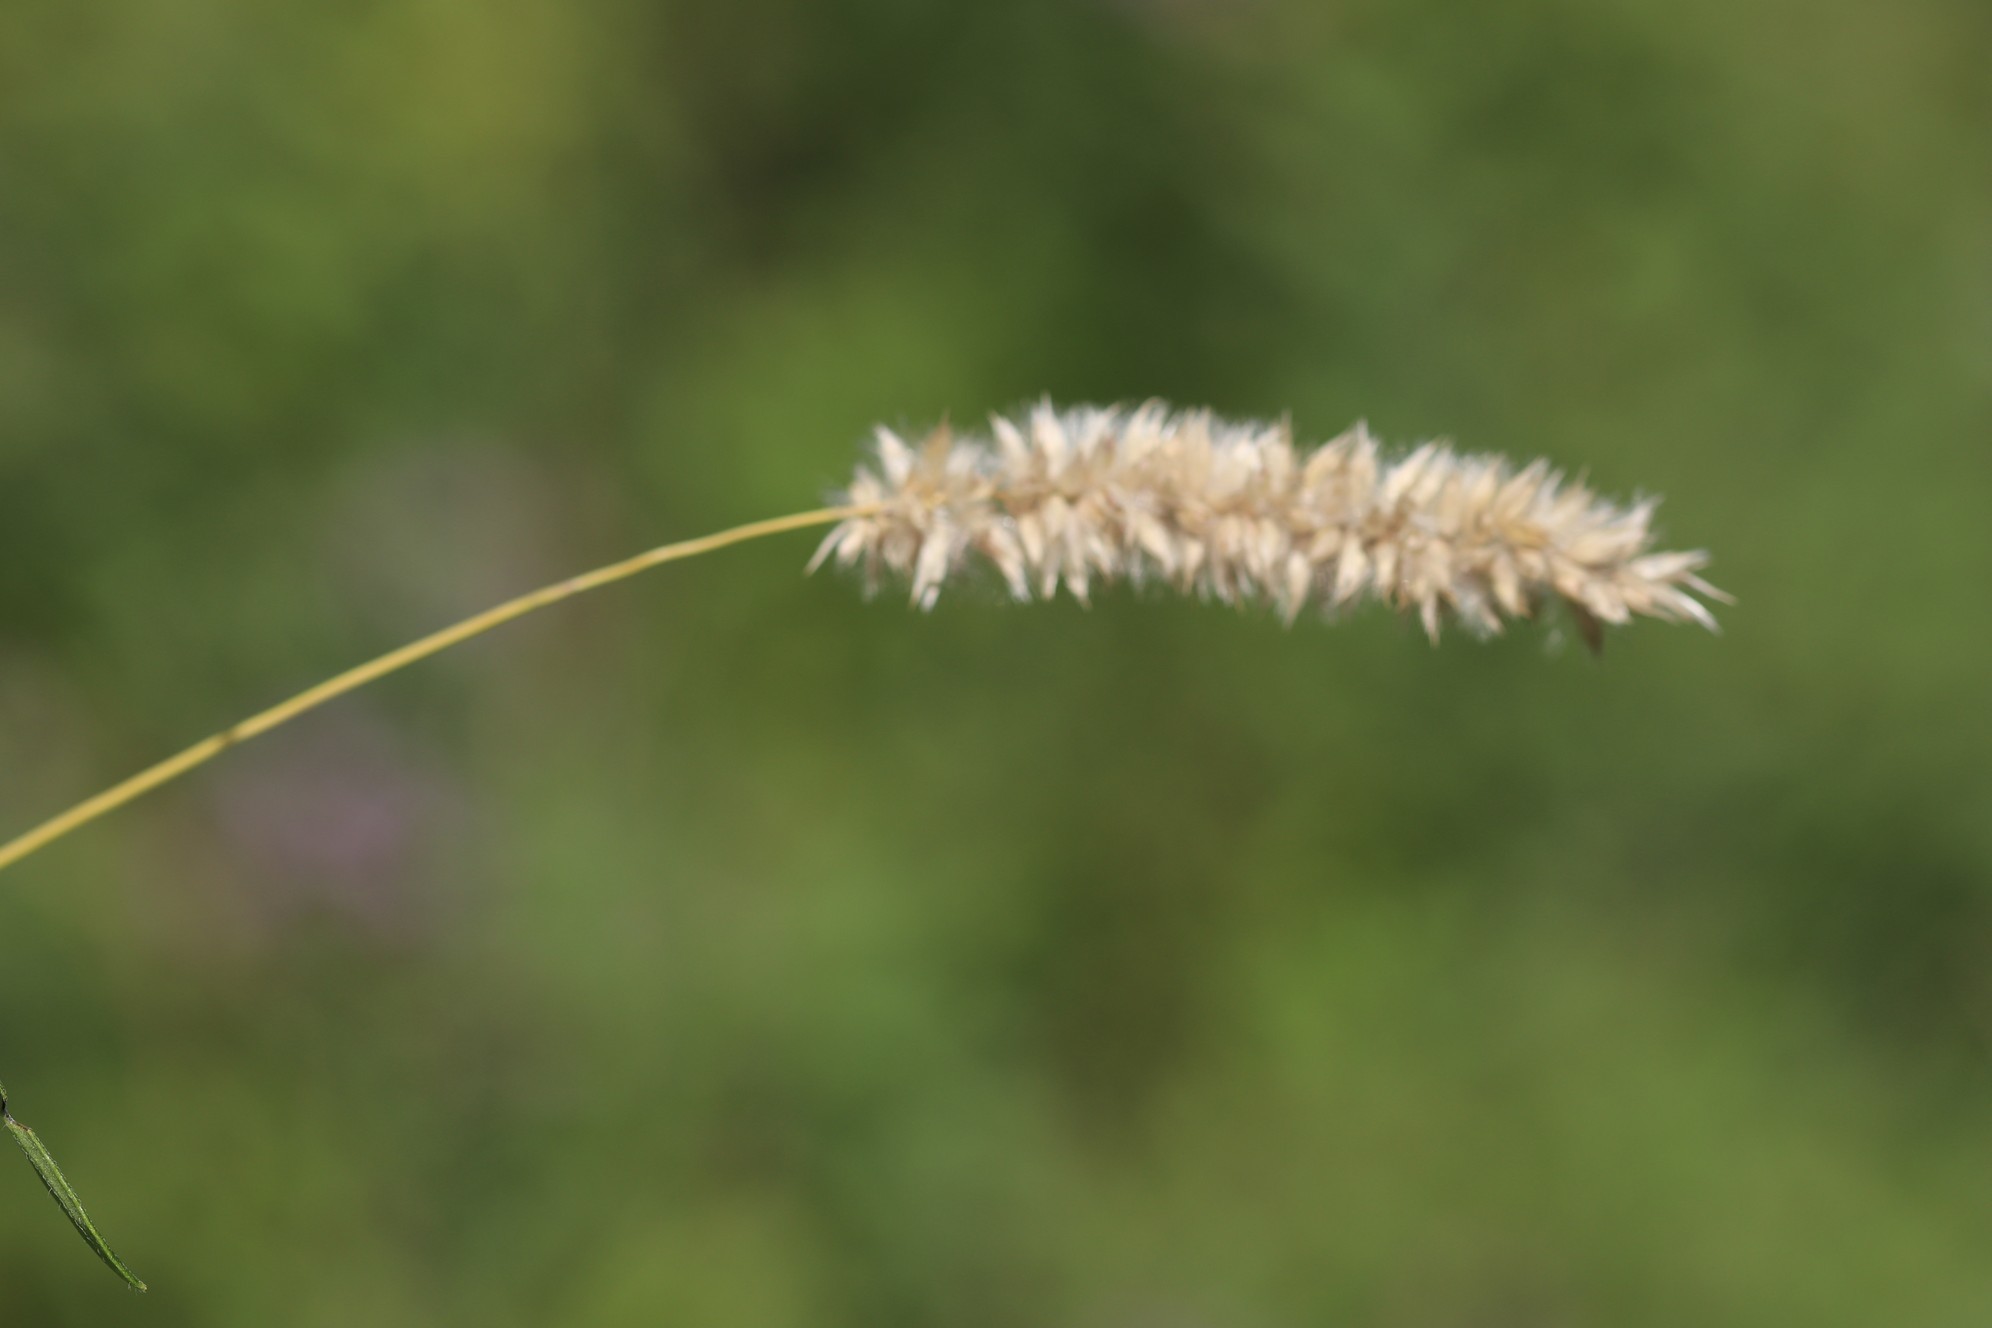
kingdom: Plantae
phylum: Tracheophyta
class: Liliopsida
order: Poales
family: Poaceae
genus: Melica
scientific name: Melica transsilvanica
